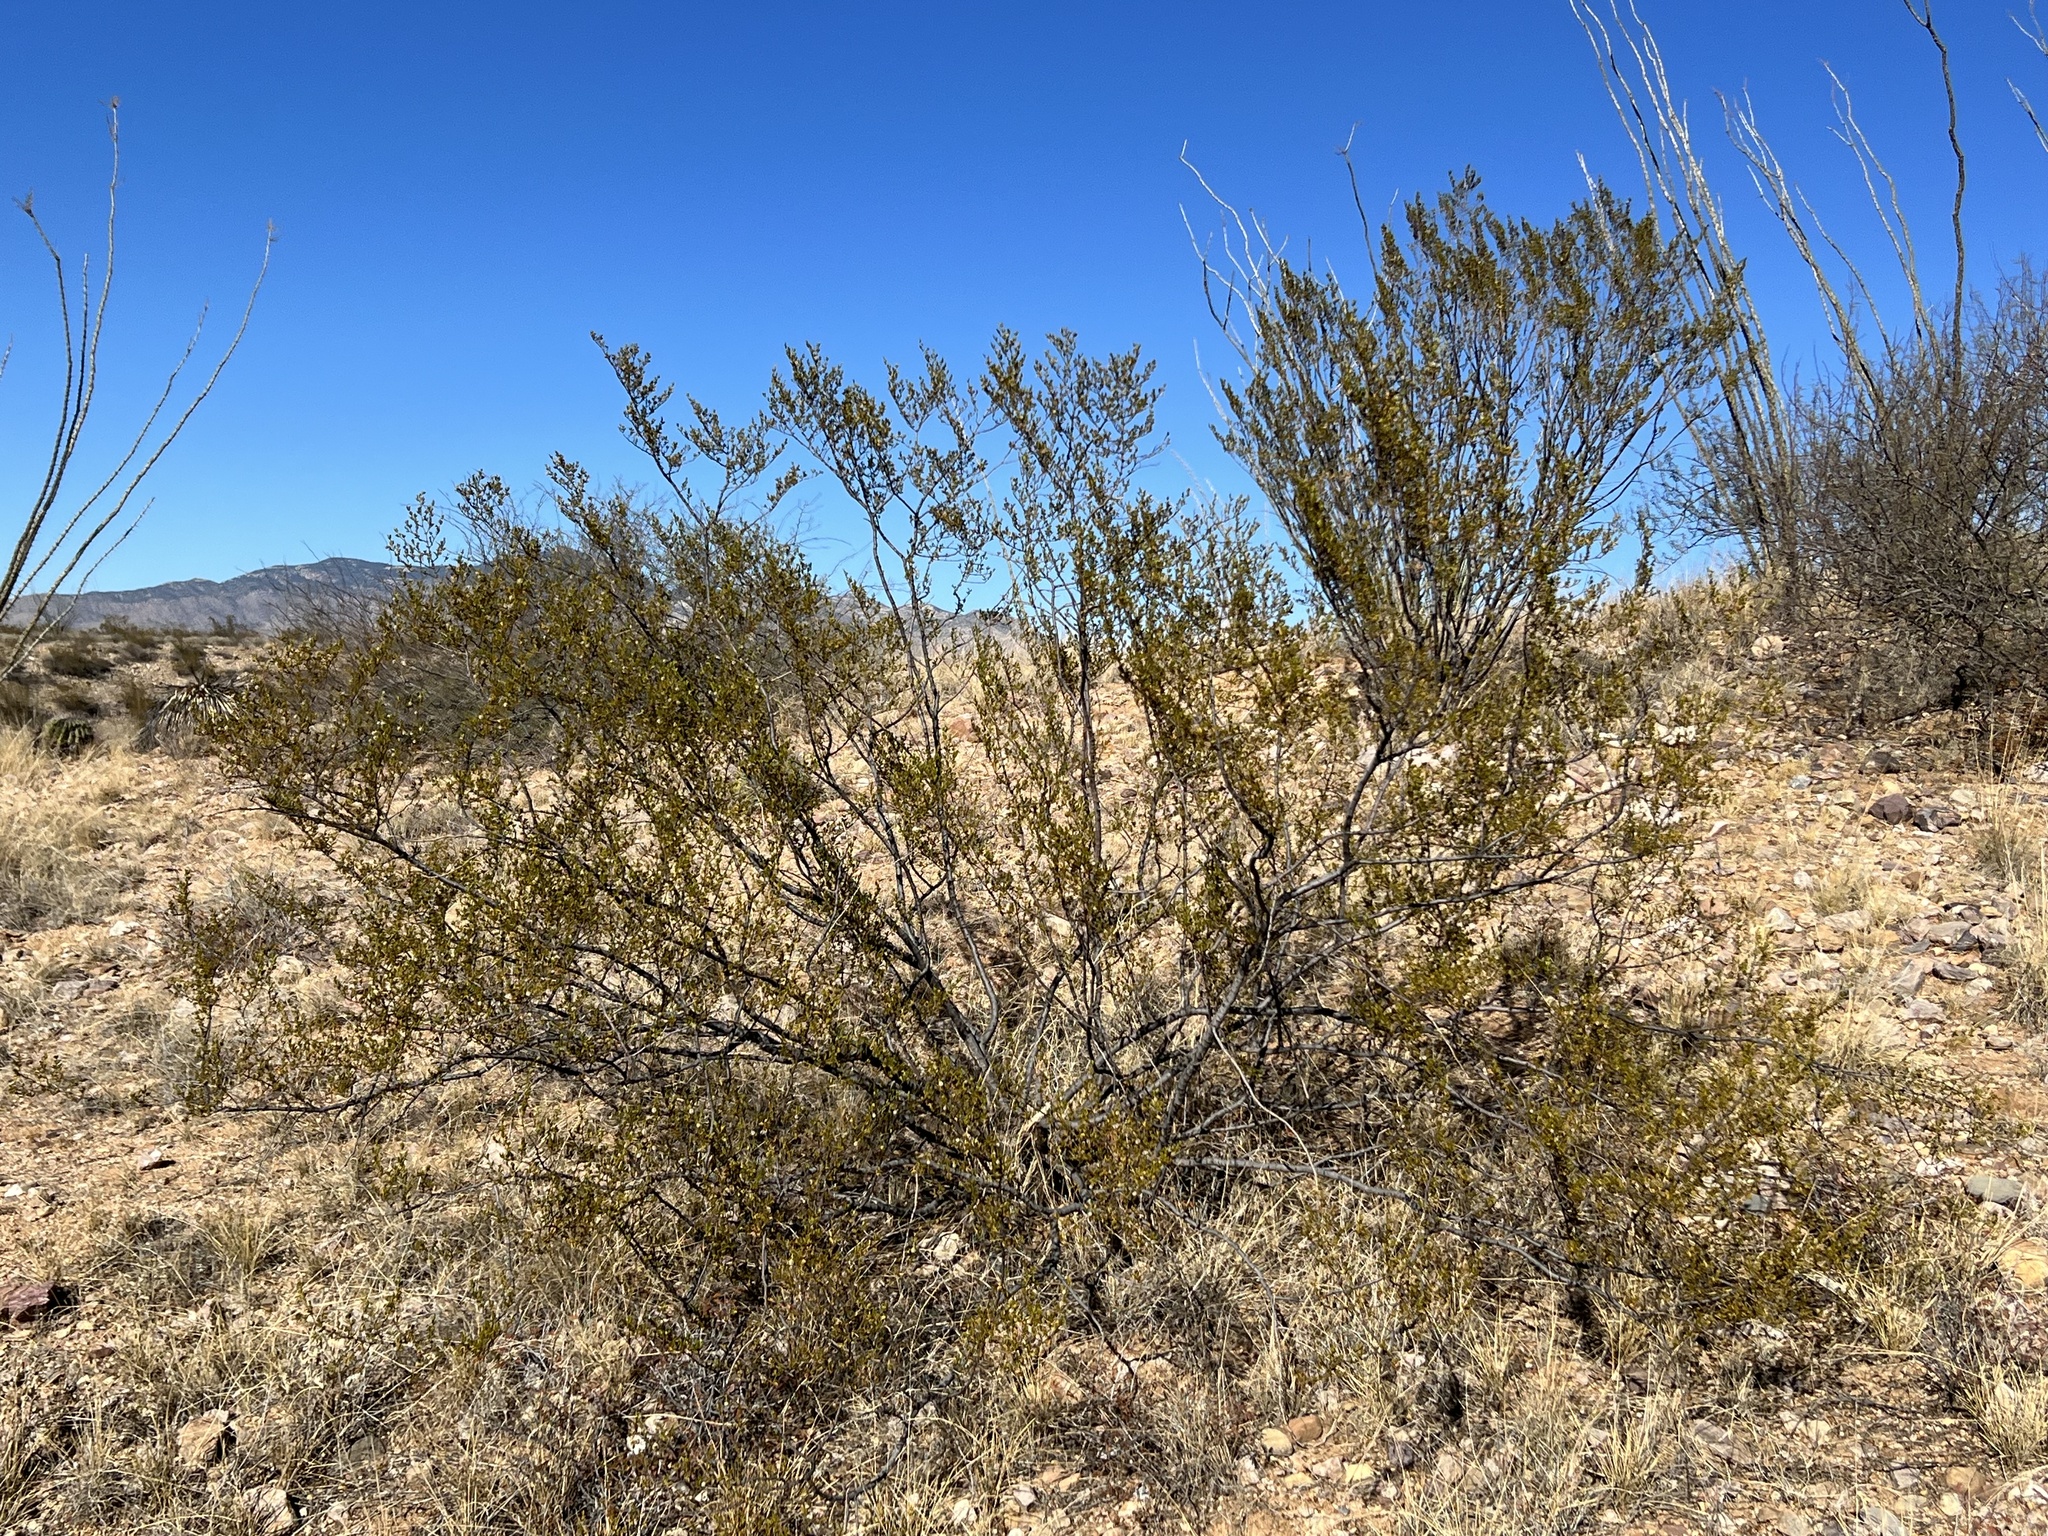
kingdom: Plantae
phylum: Tracheophyta
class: Magnoliopsida
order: Zygophyllales
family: Zygophyllaceae
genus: Larrea
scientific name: Larrea tridentata
